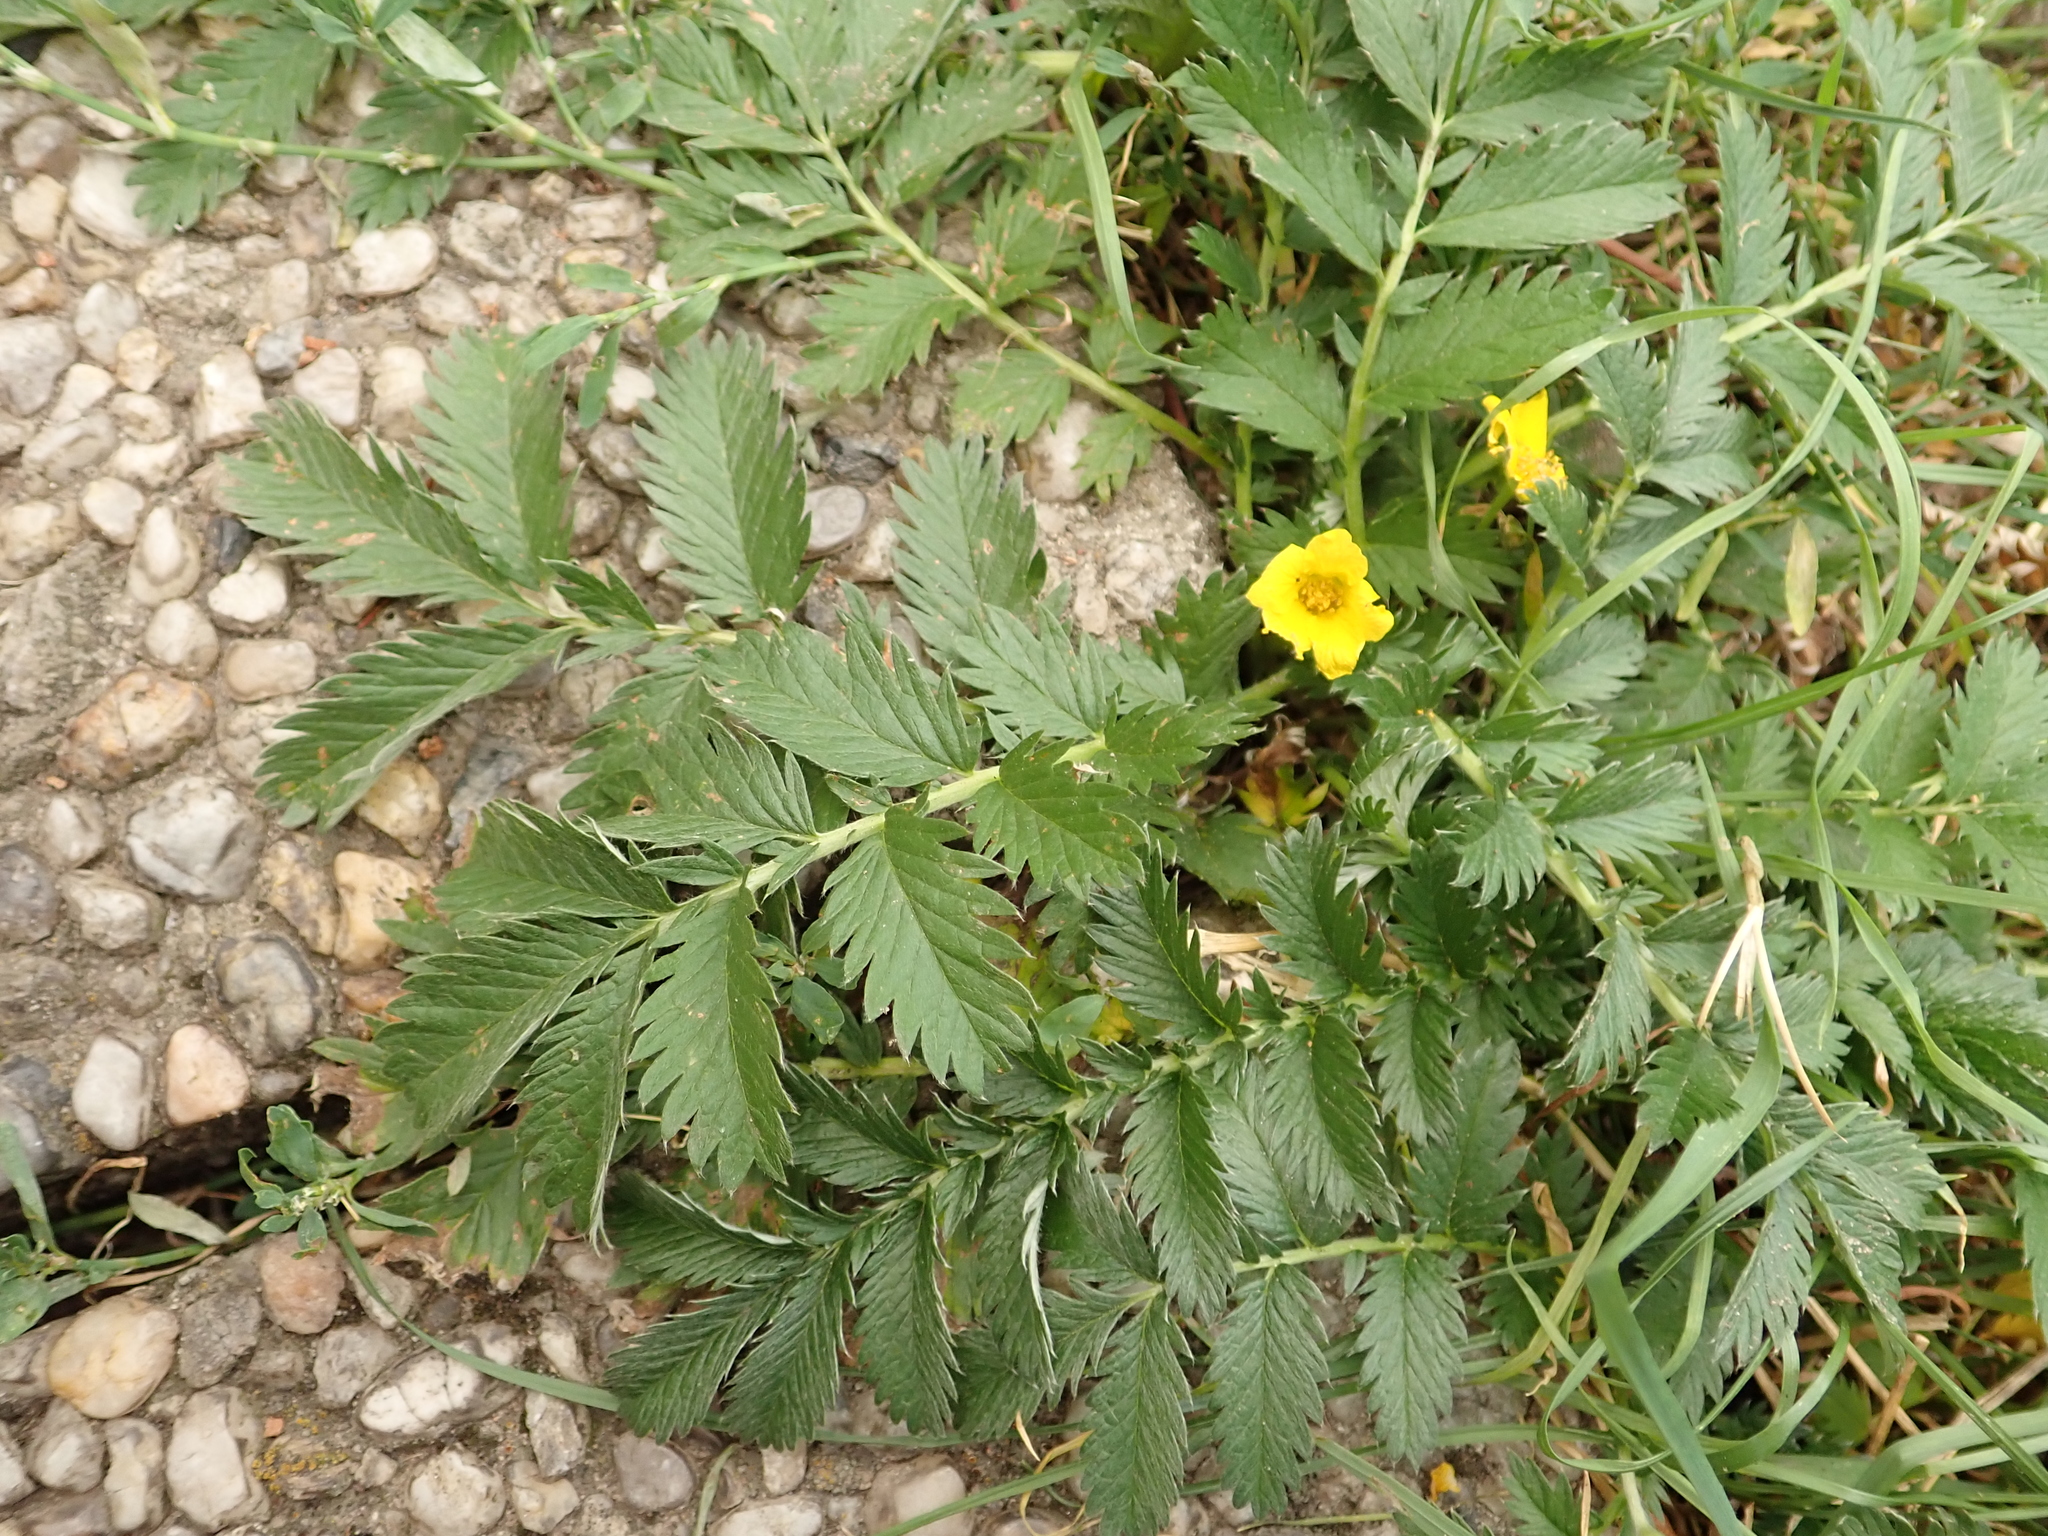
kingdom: Plantae
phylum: Tracheophyta
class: Magnoliopsida
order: Rosales
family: Rosaceae
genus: Argentina
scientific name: Argentina anserina
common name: Common silverweed
